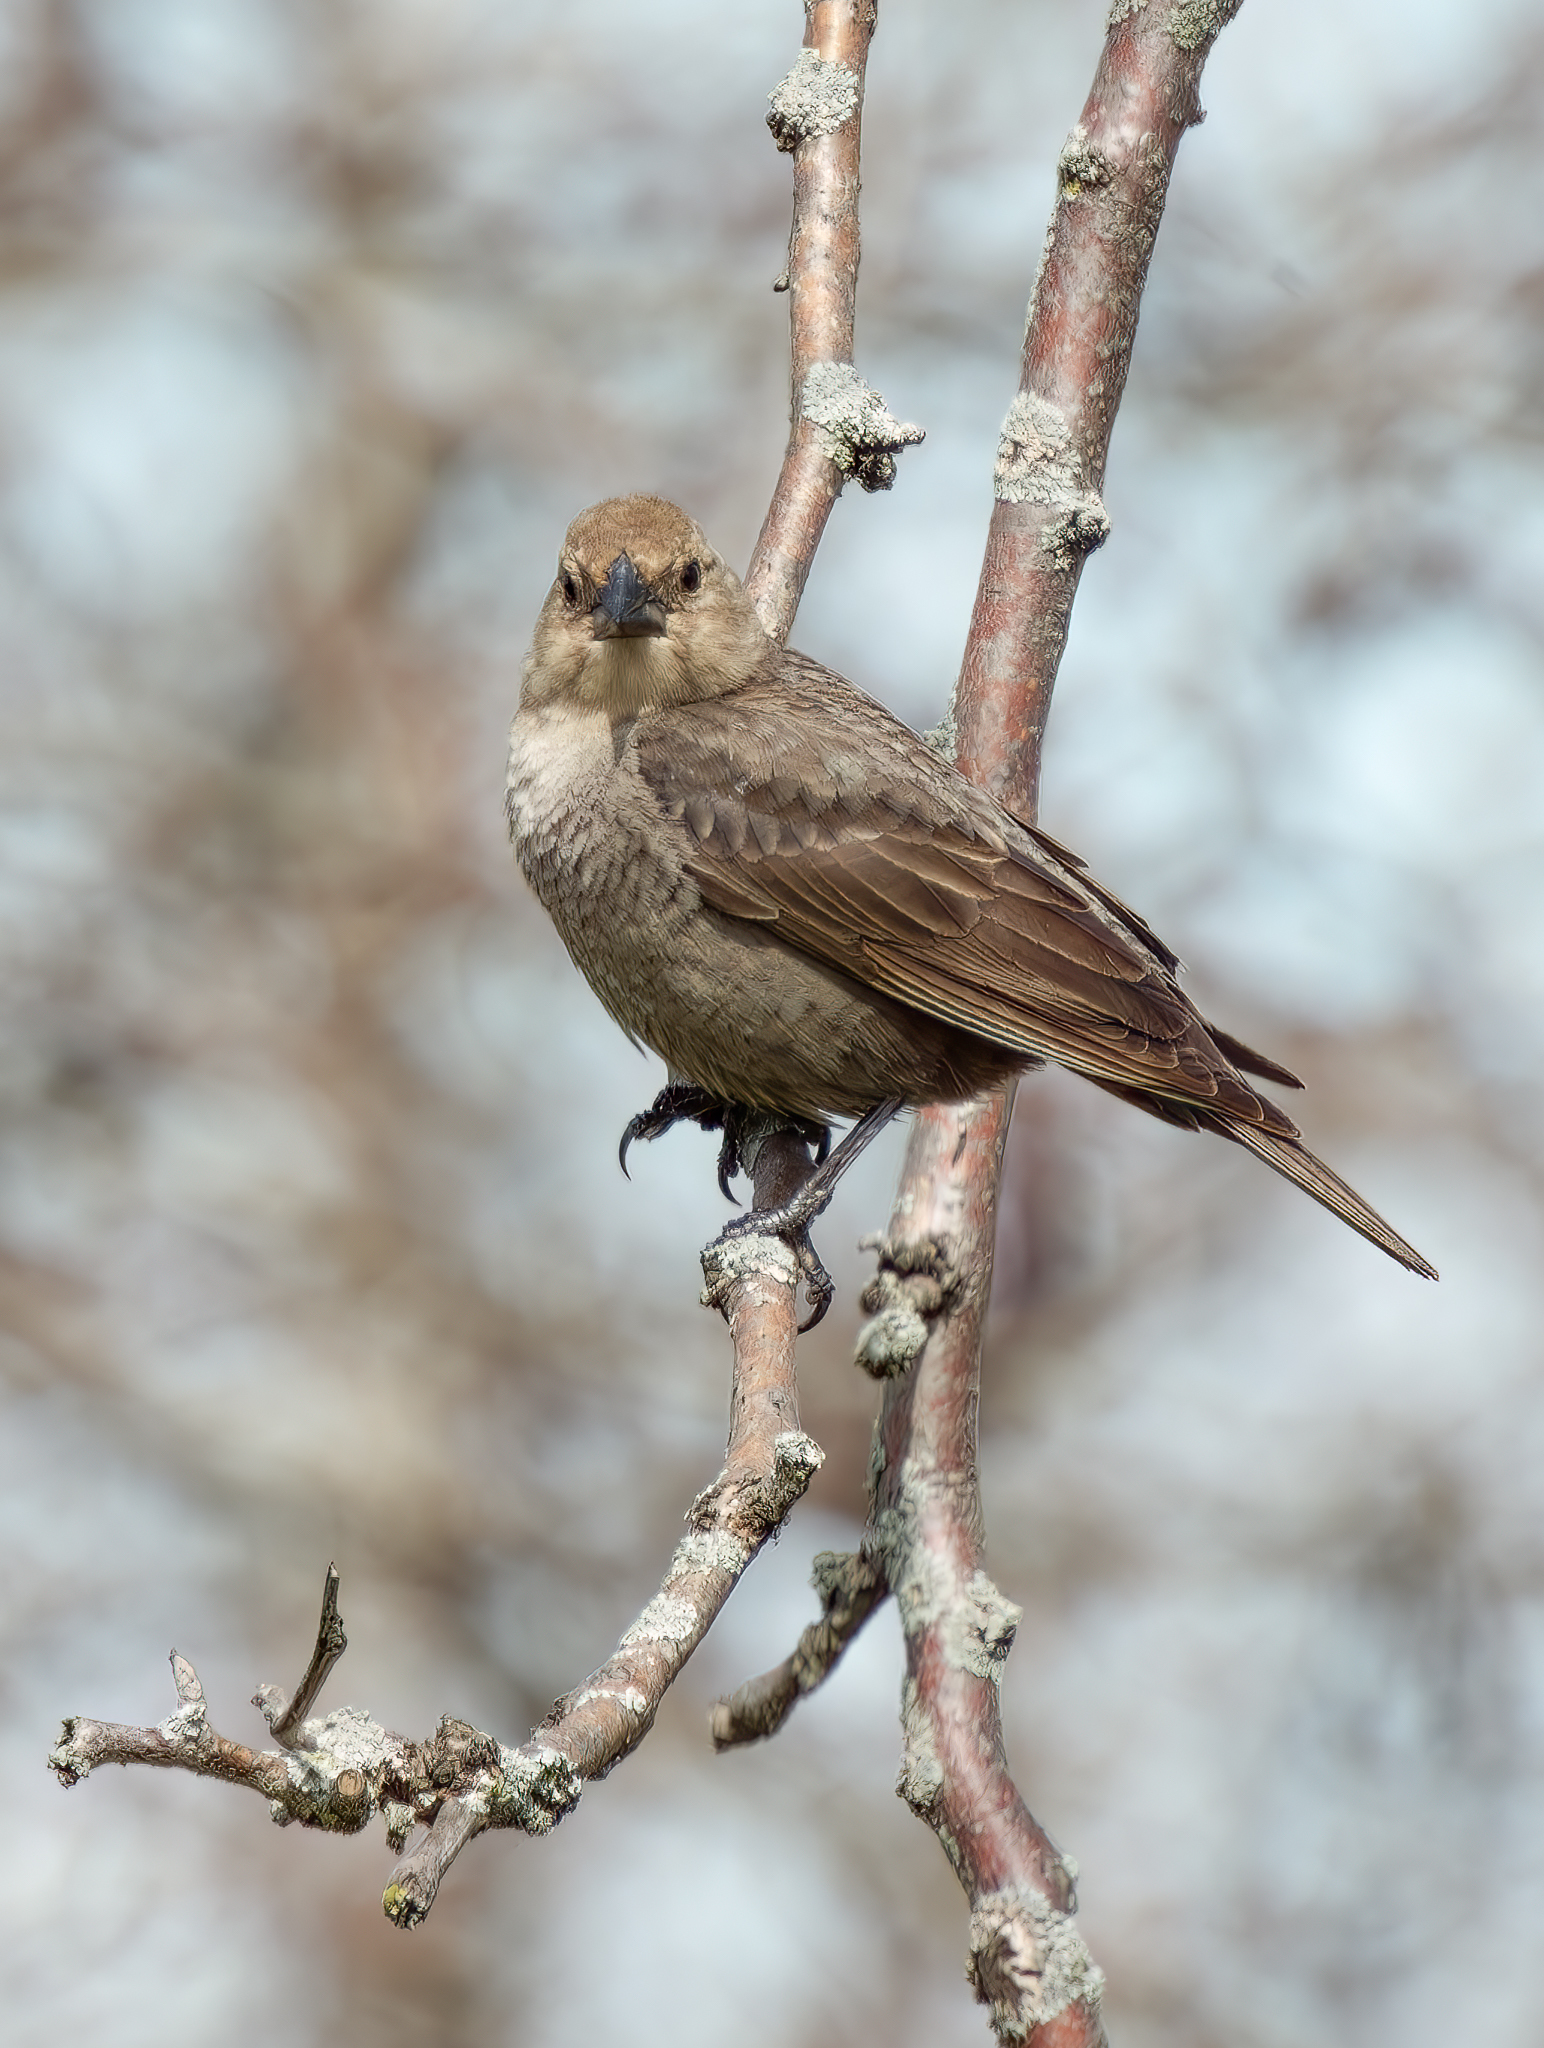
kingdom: Animalia
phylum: Chordata
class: Aves
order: Passeriformes
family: Icteridae
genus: Molothrus
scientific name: Molothrus ater
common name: Brown-headed cowbird
